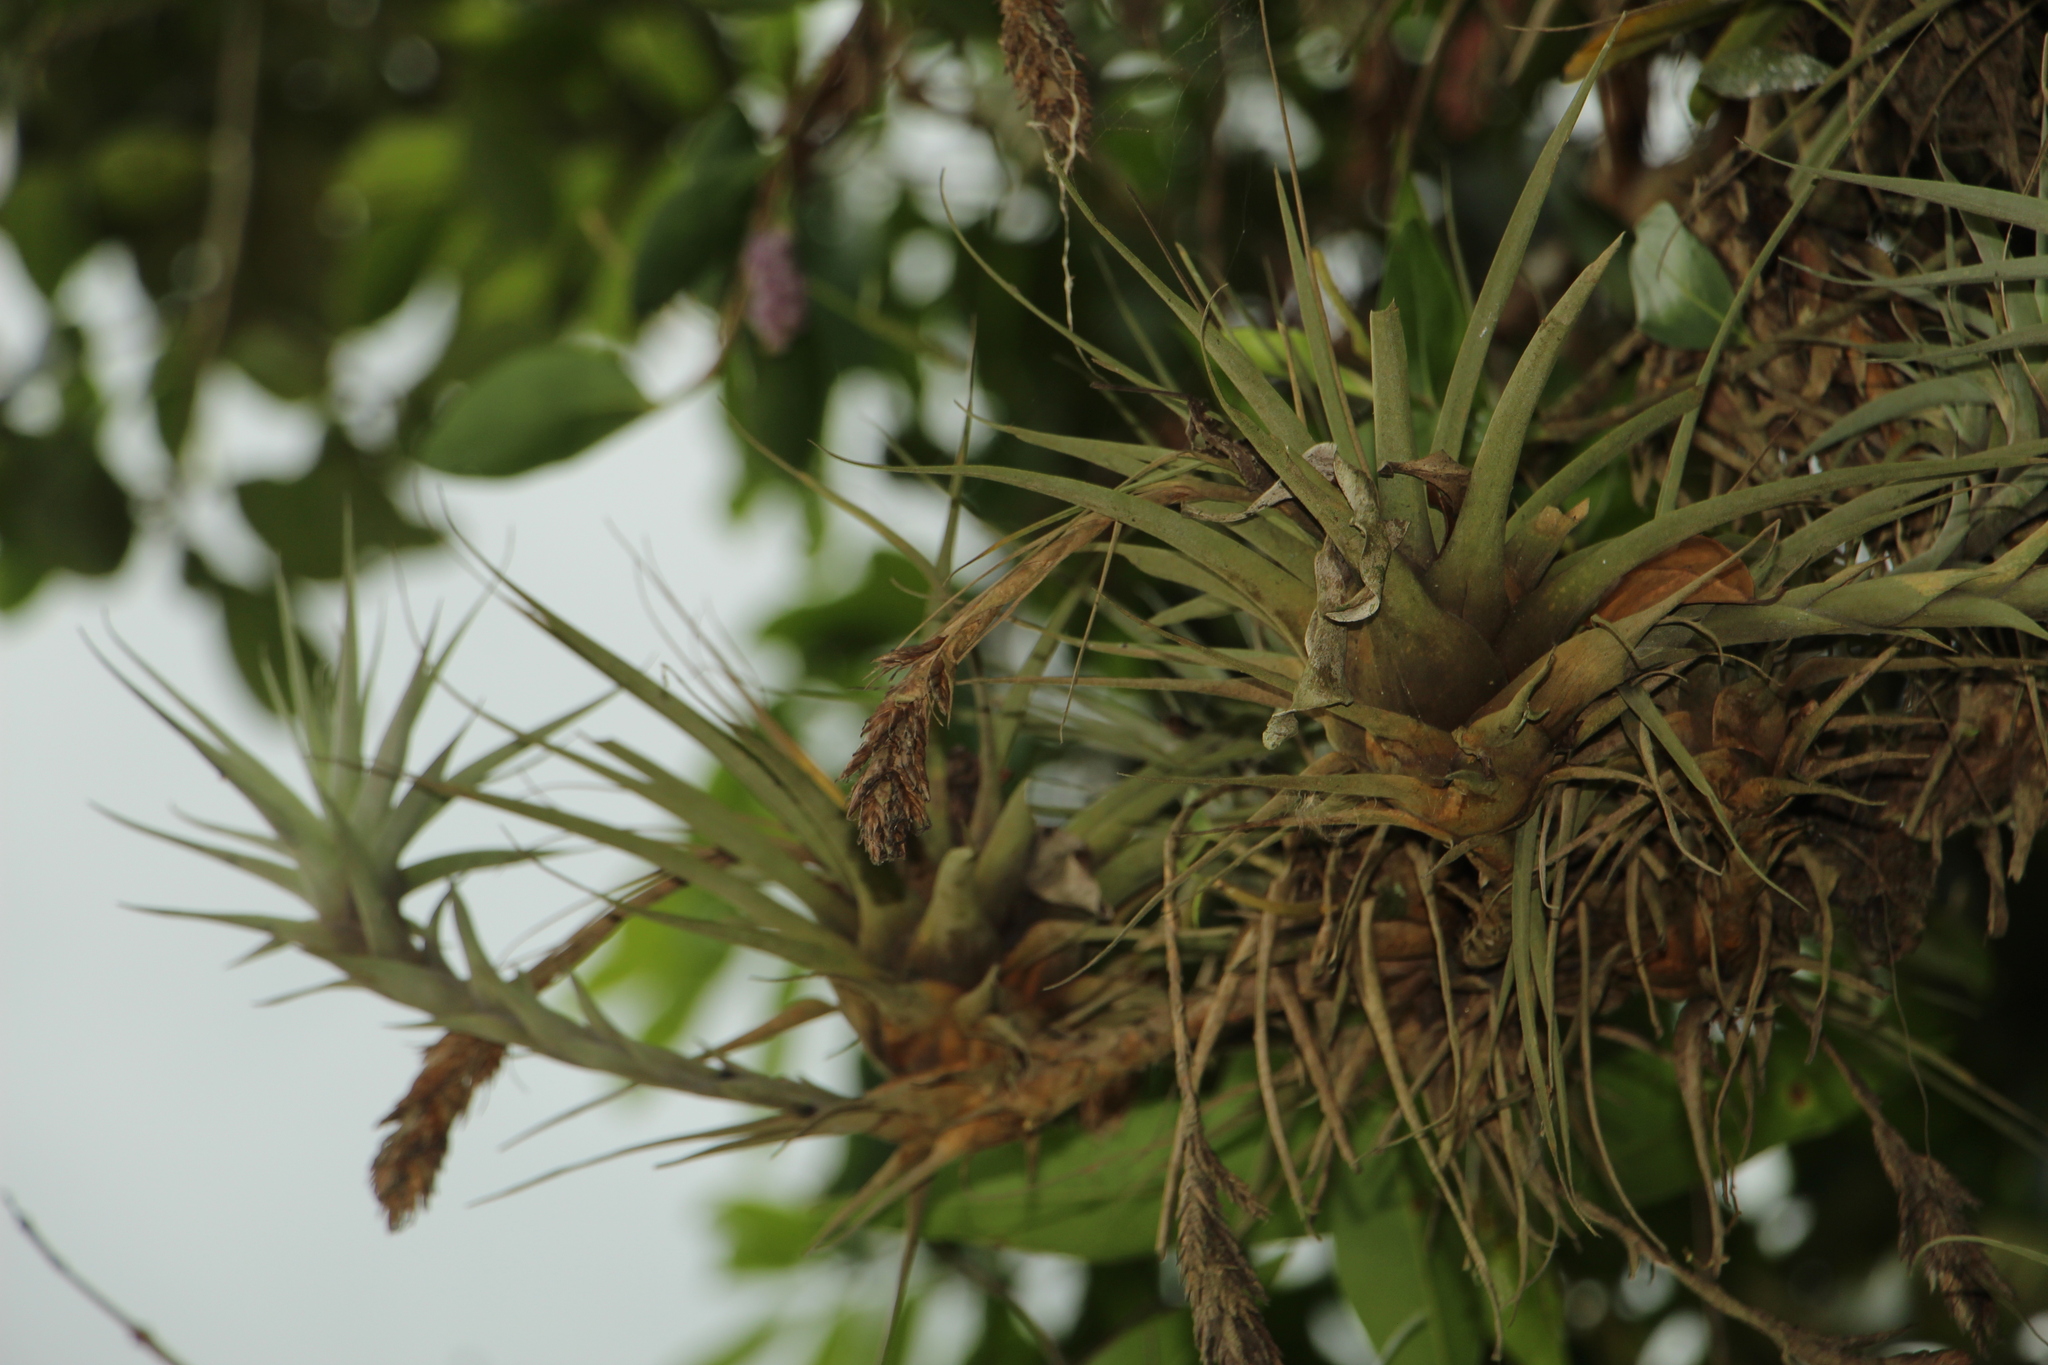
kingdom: Plantae
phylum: Tracheophyta
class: Liliopsida
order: Poales
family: Bromeliaceae
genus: Vriesea
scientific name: Vriesea myriantha
